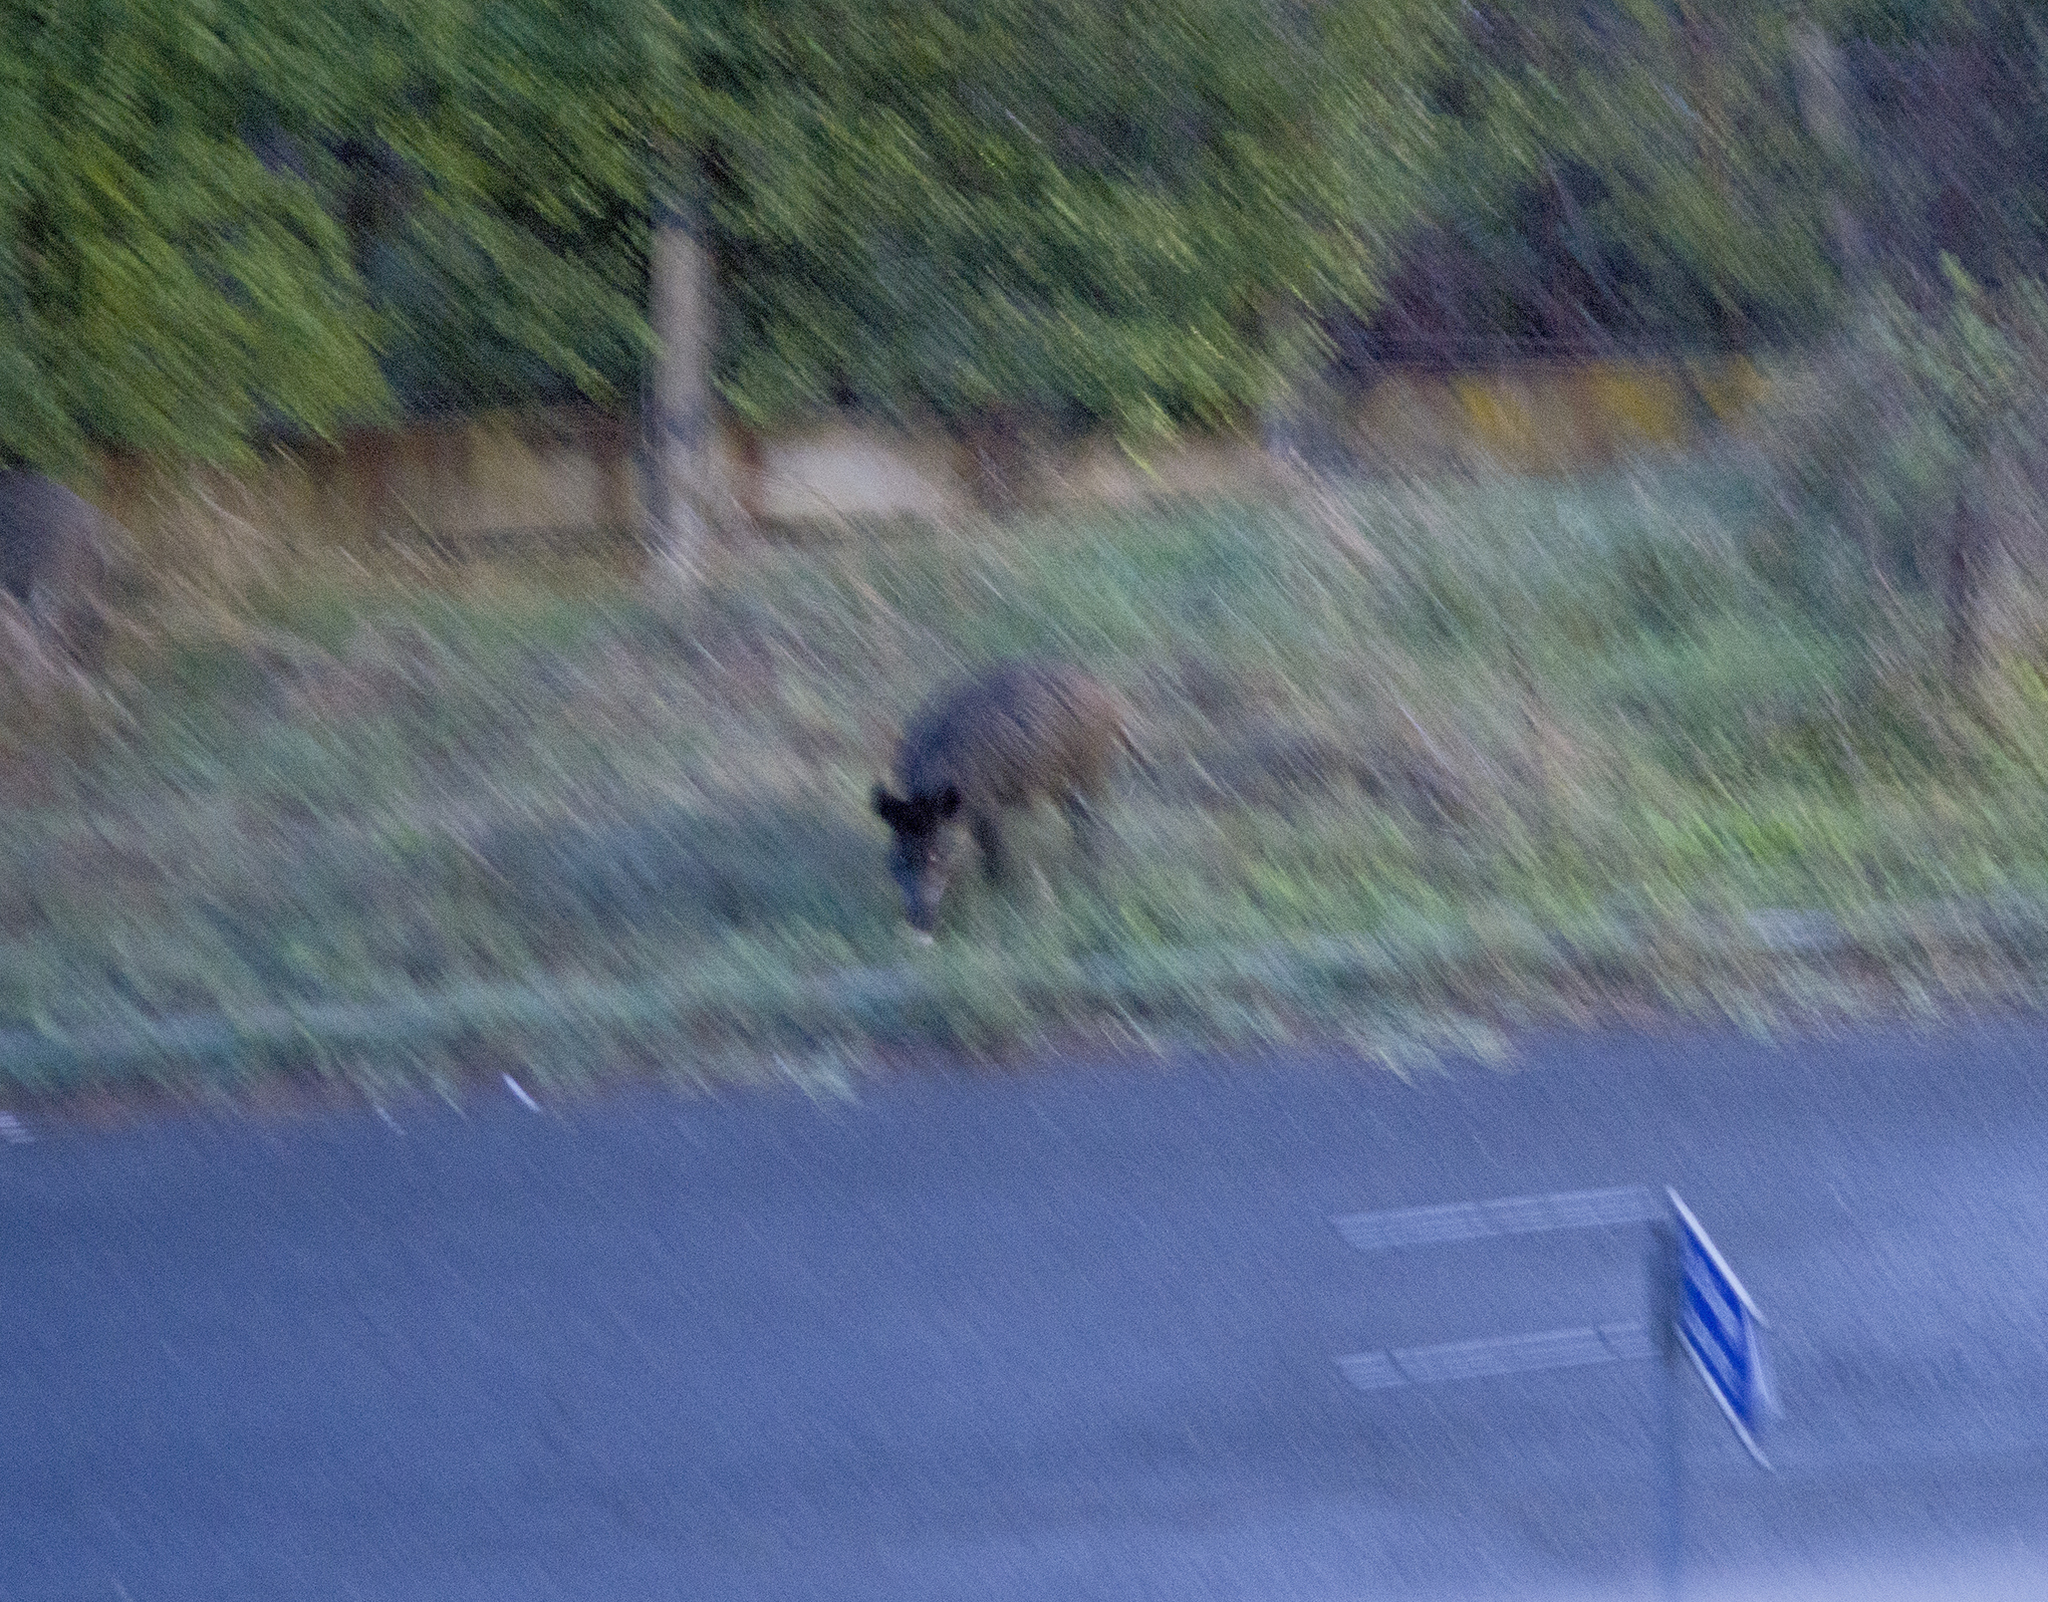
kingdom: Animalia
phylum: Chordata
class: Mammalia
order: Artiodactyla
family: Suidae
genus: Sus
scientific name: Sus scrofa
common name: Wild boar
